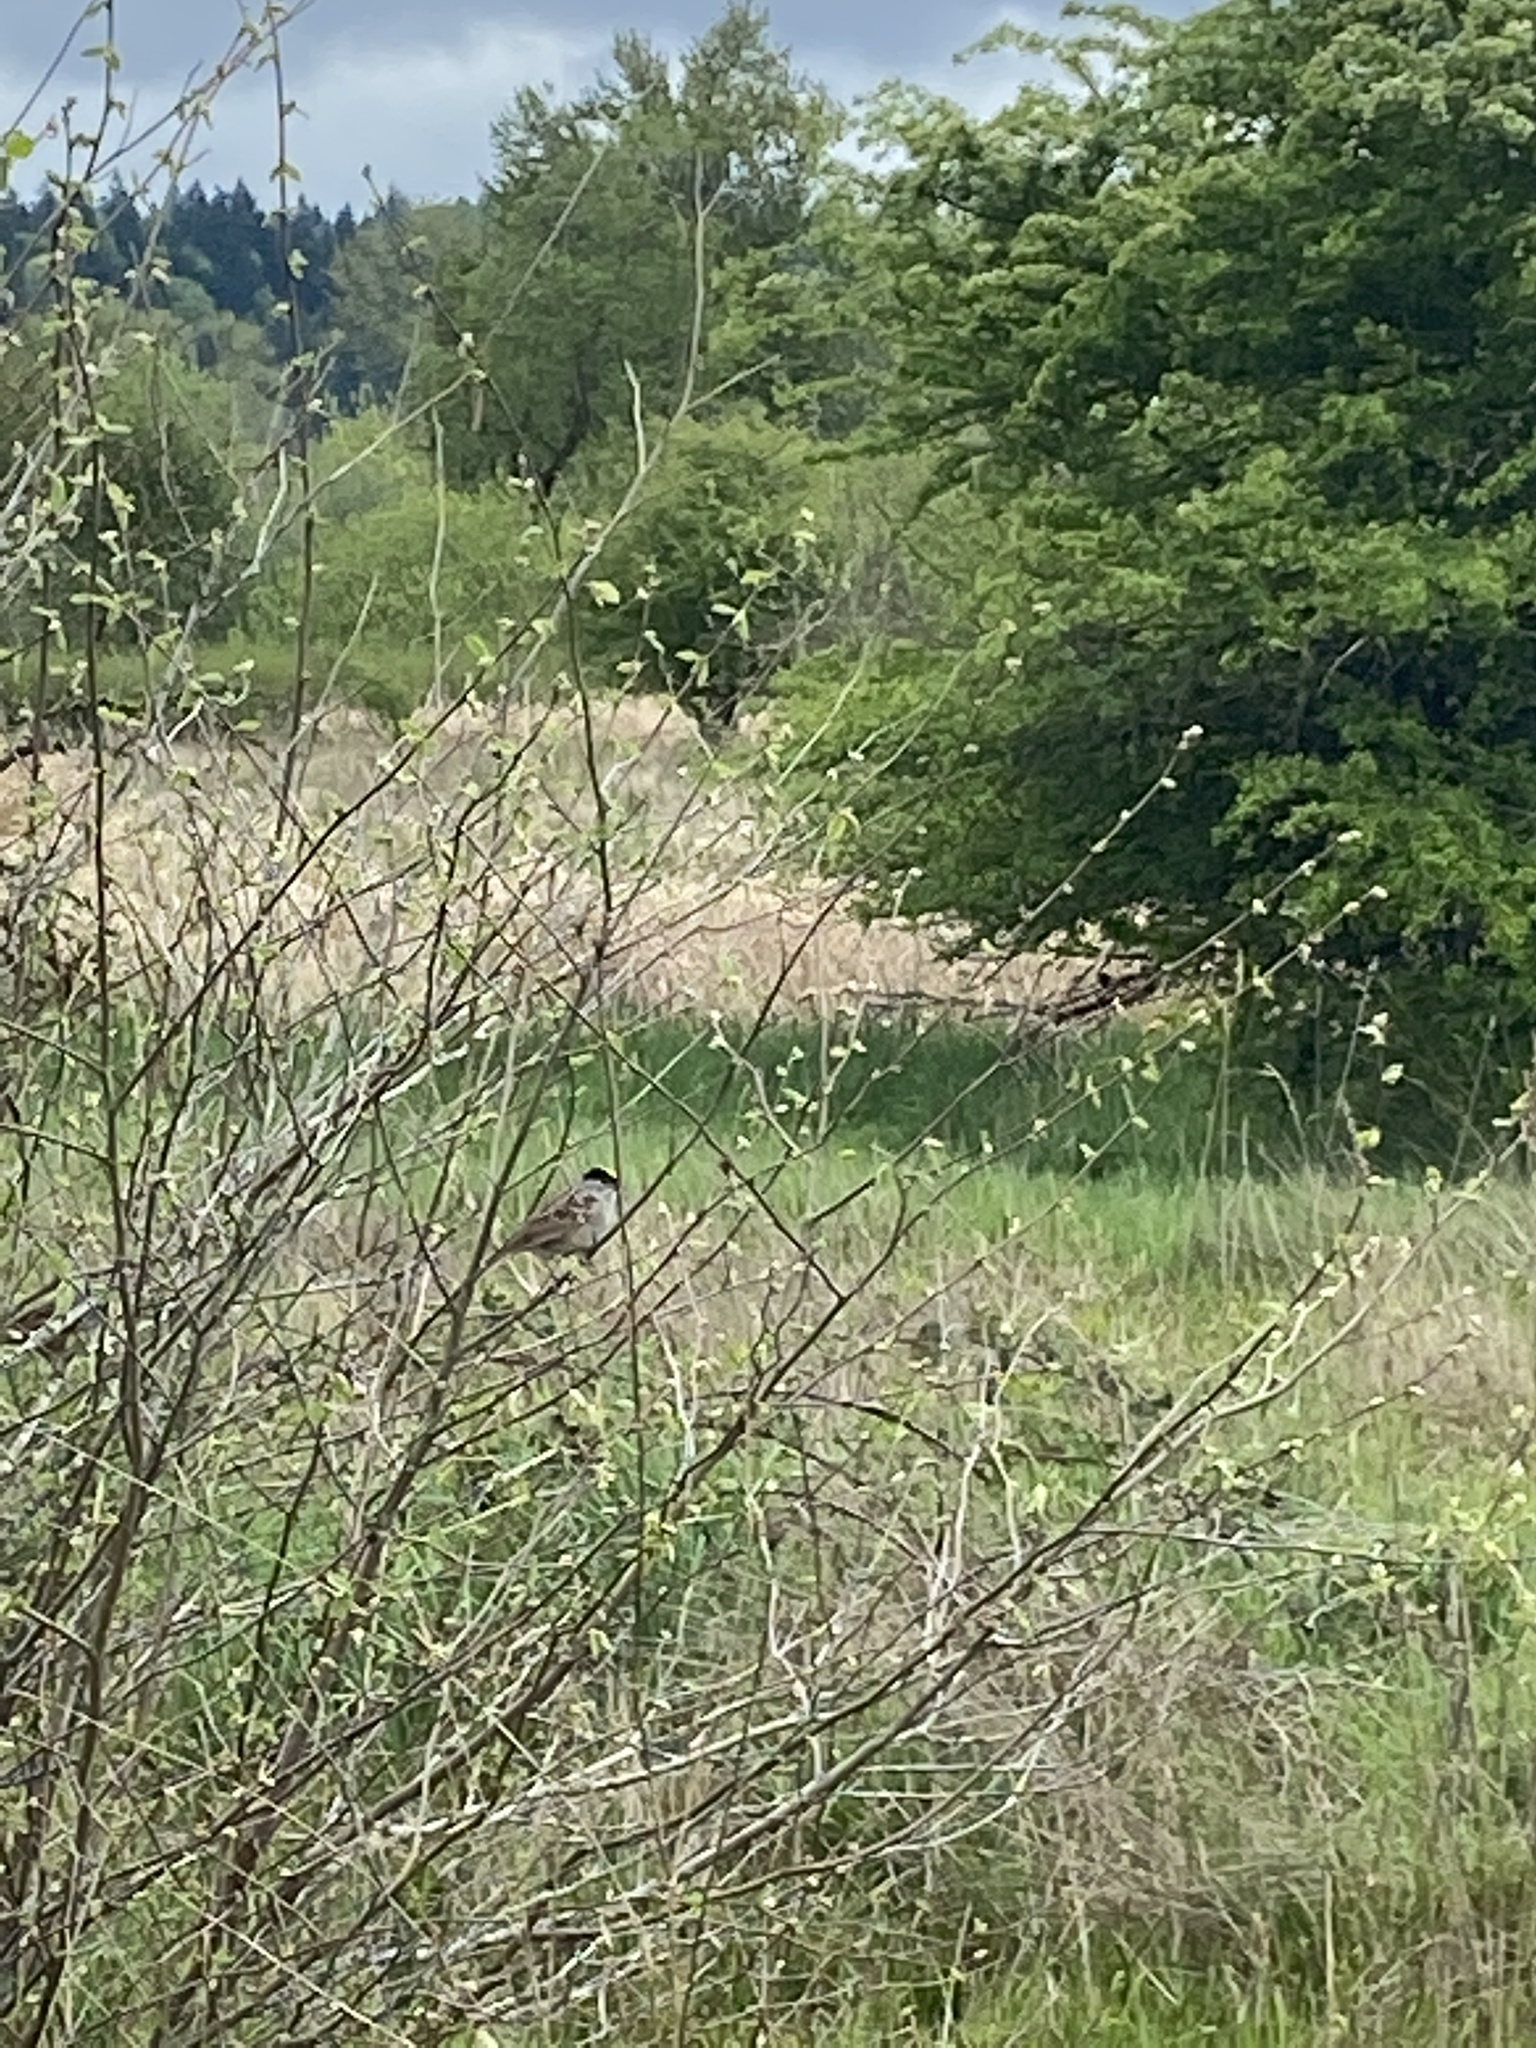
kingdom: Animalia
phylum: Chordata
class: Aves
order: Passeriformes
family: Passerellidae
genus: Zonotrichia
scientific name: Zonotrichia atricapilla
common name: Golden-crowned sparrow
